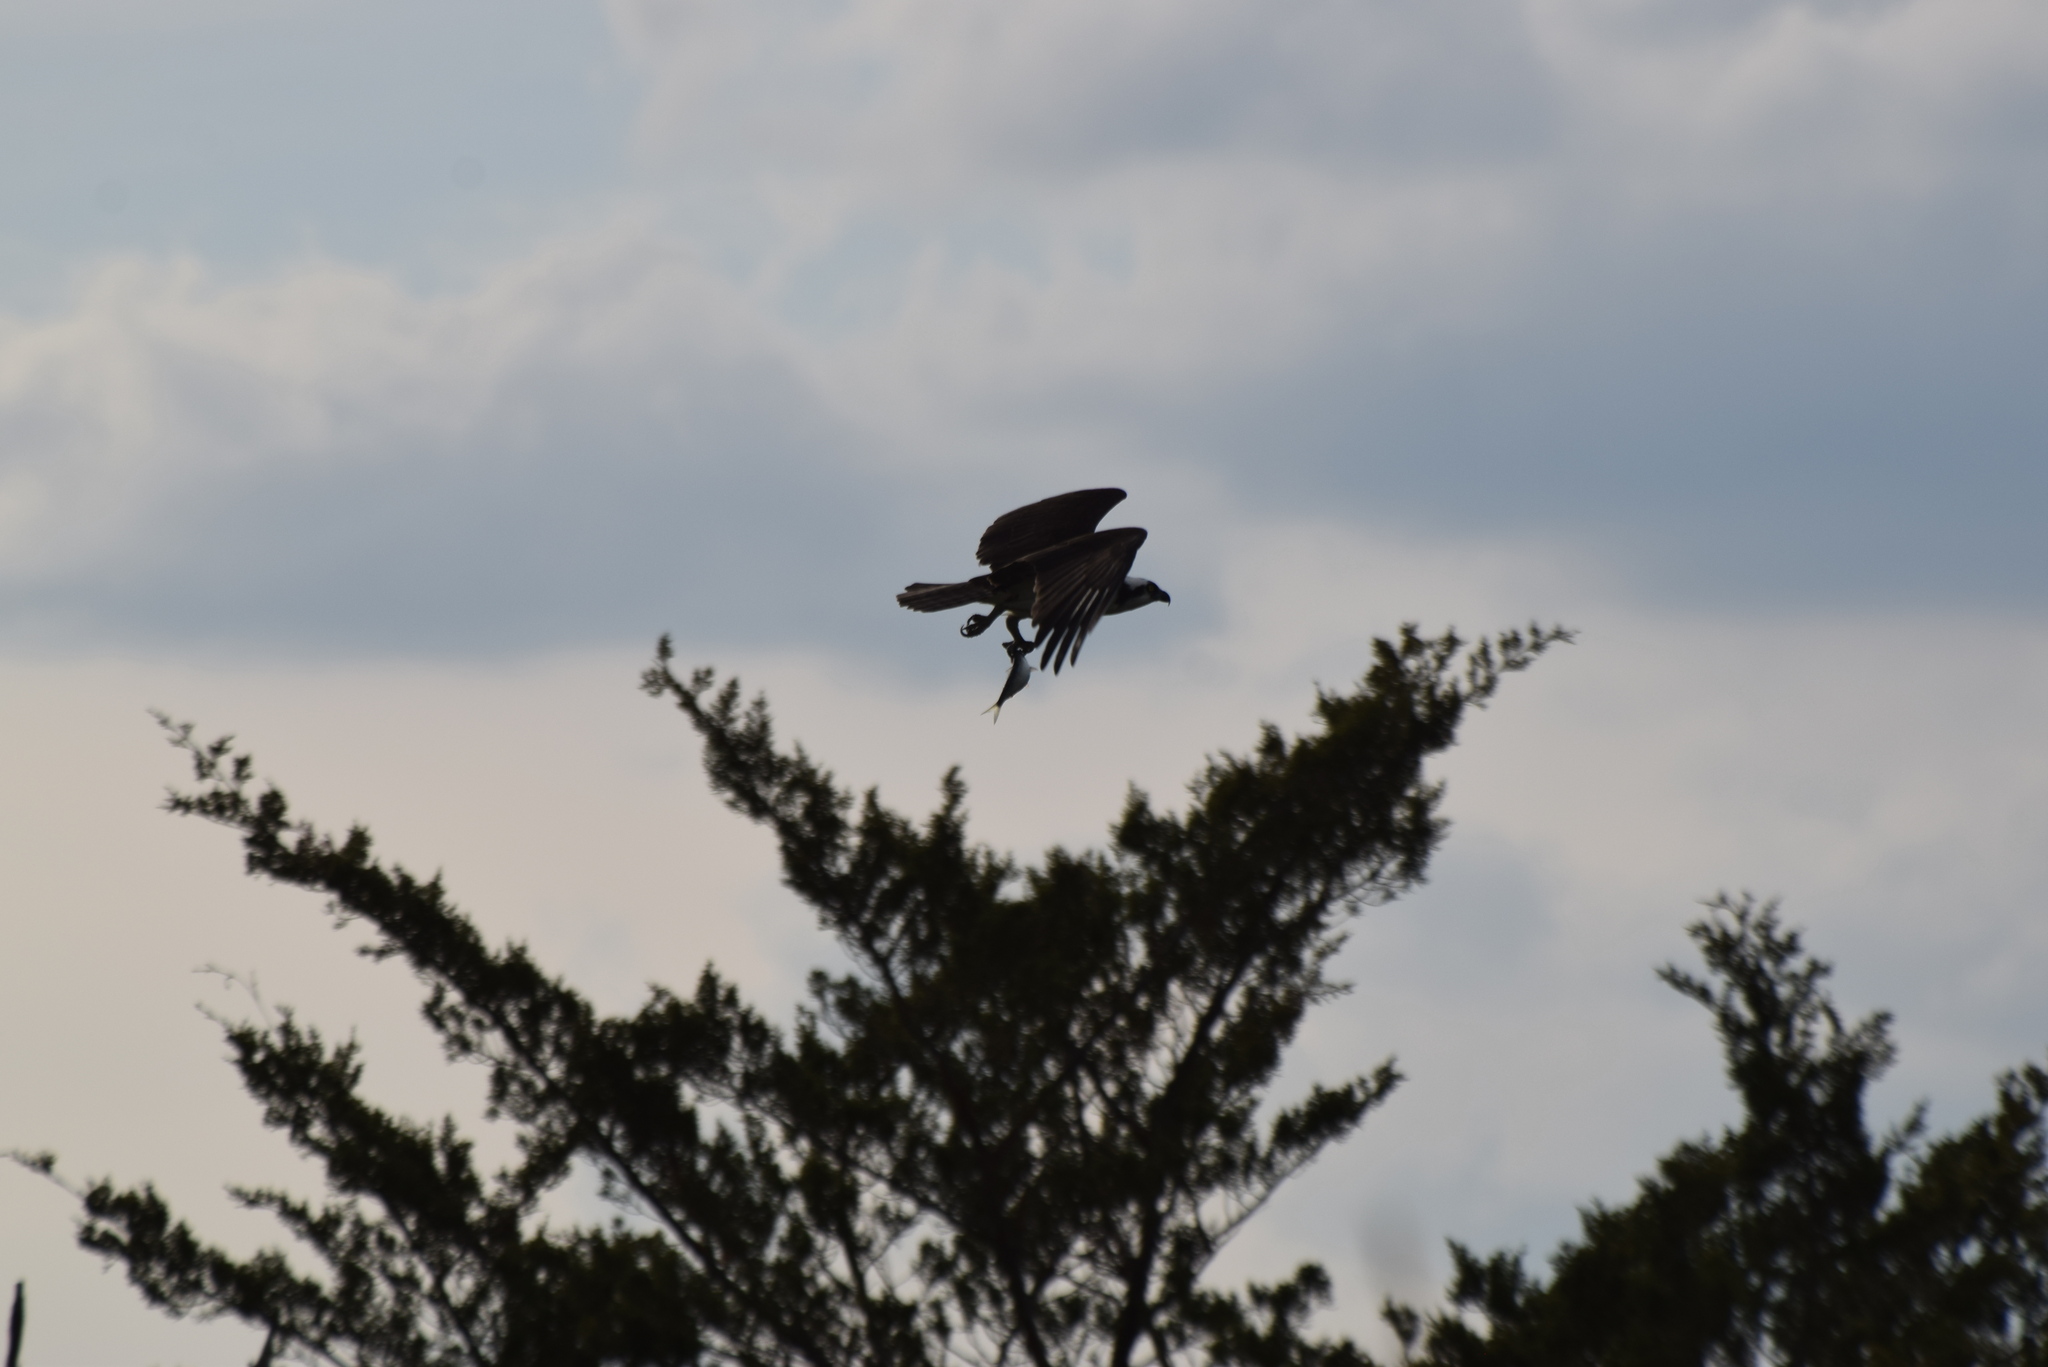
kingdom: Animalia
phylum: Chordata
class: Aves
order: Accipitriformes
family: Pandionidae
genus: Pandion
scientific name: Pandion haliaetus
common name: Osprey
